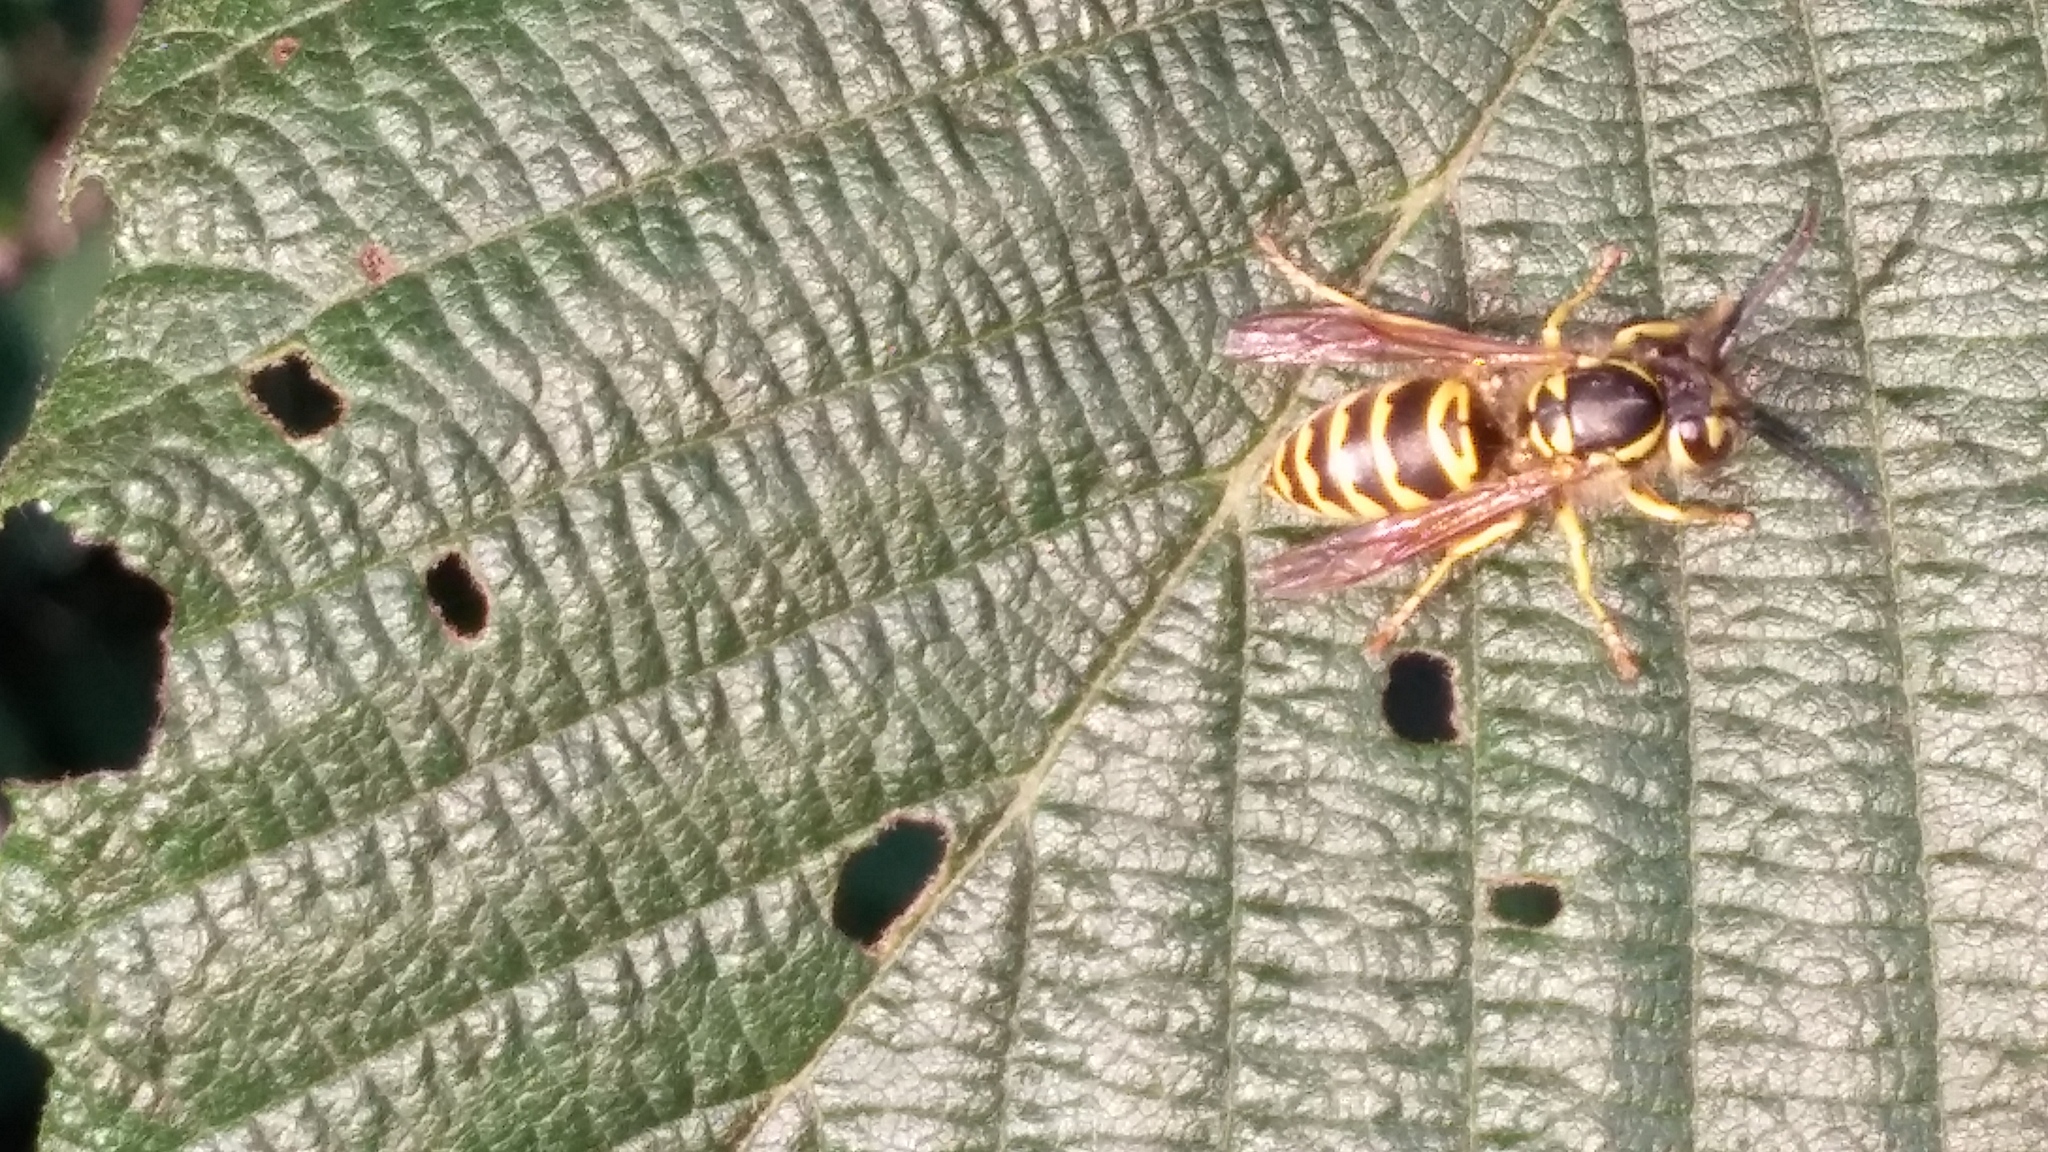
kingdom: Animalia
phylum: Arthropoda
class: Insecta
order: Hymenoptera
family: Vespidae
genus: Vespula
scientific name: Vespula maculifrons
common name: Eastern yellowjacket
